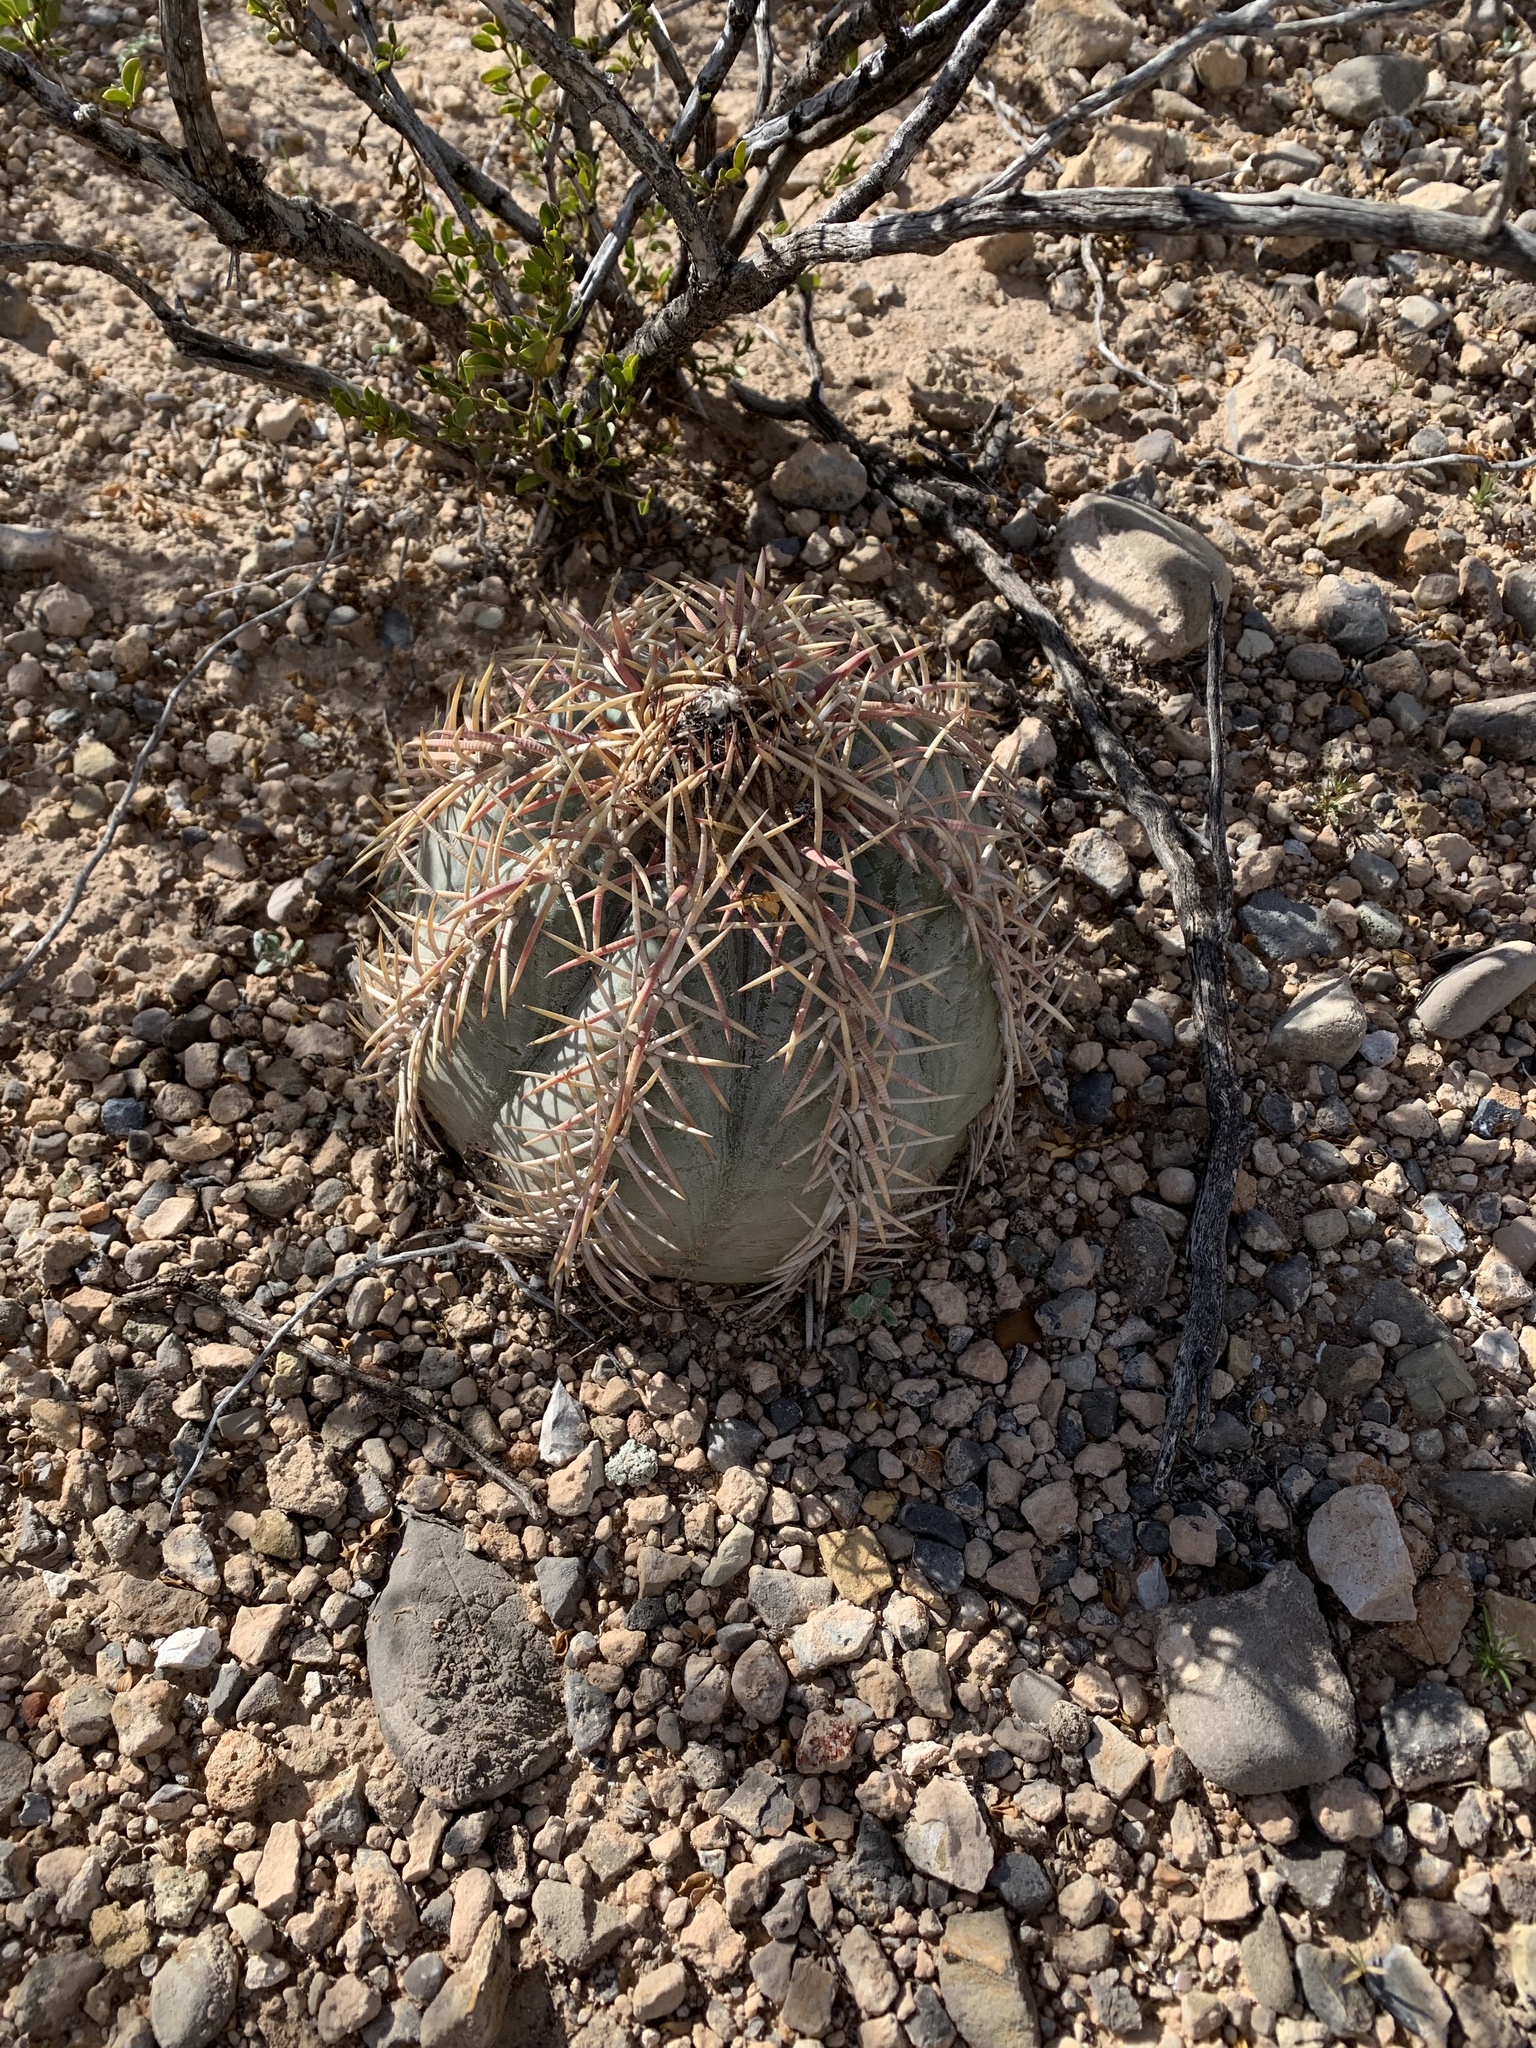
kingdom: Plantae
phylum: Tracheophyta
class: Magnoliopsida
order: Caryophyllales
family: Cactaceae
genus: Echinocactus
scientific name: Echinocactus horizonthalonius
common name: Devilshead
